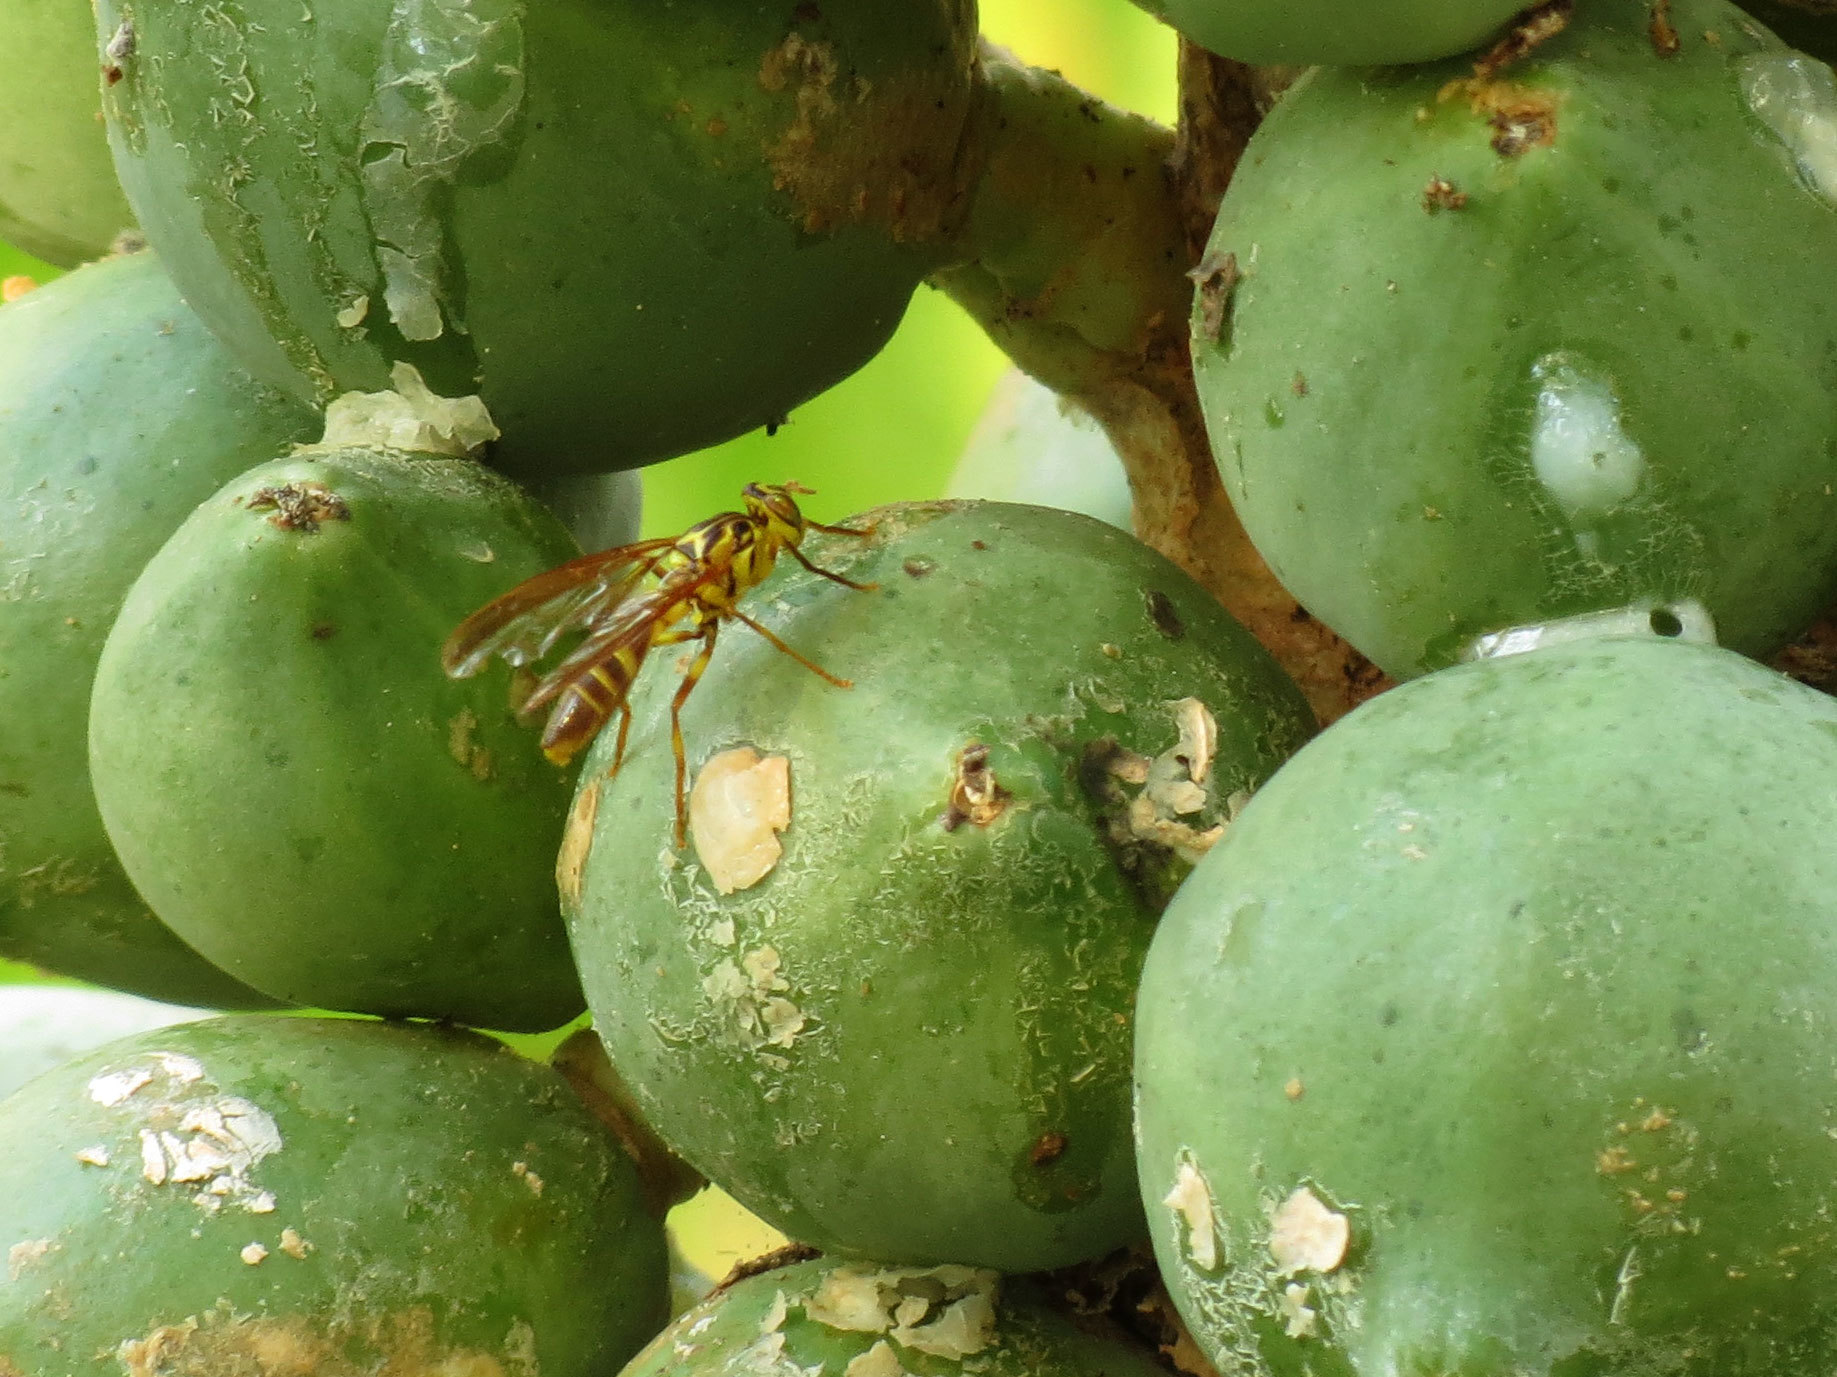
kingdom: Animalia
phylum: Arthropoda
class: Insecta
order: Diptera
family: Tephritidae
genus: Anastrepha
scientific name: Anastrepha curvicauda
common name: Papaya fruit fly
